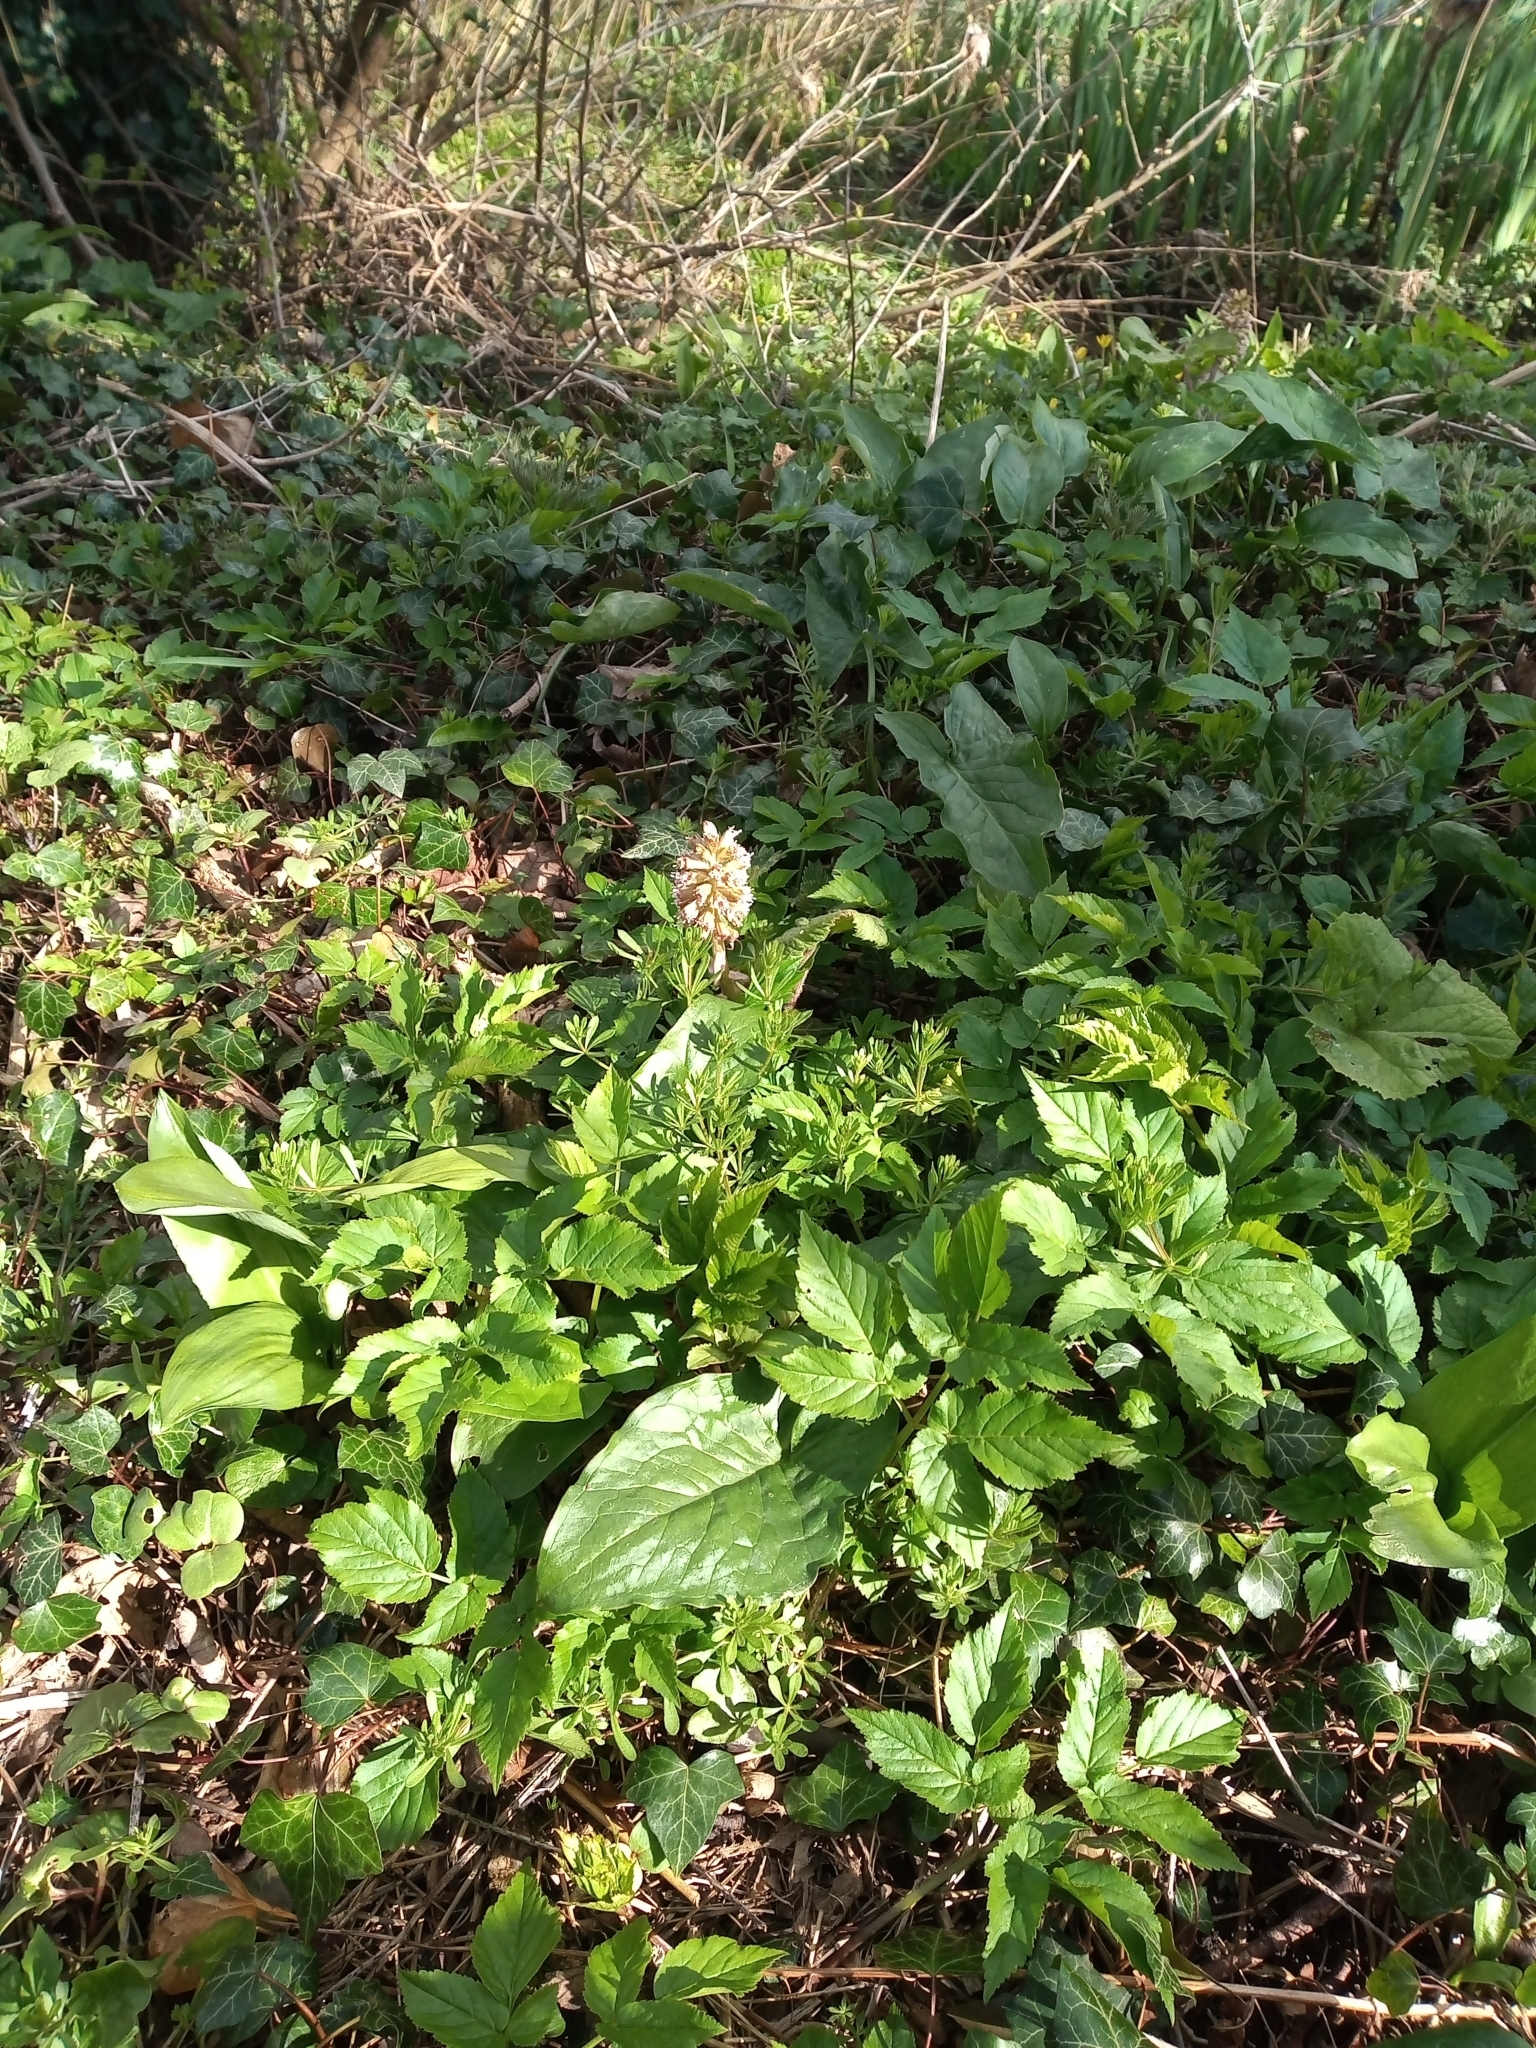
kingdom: Plantae
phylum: Tracheophyta
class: Magnoliopsida
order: Asterales
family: Asteraceae
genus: Petasites
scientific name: Petasites hybridus
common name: Butterbur
